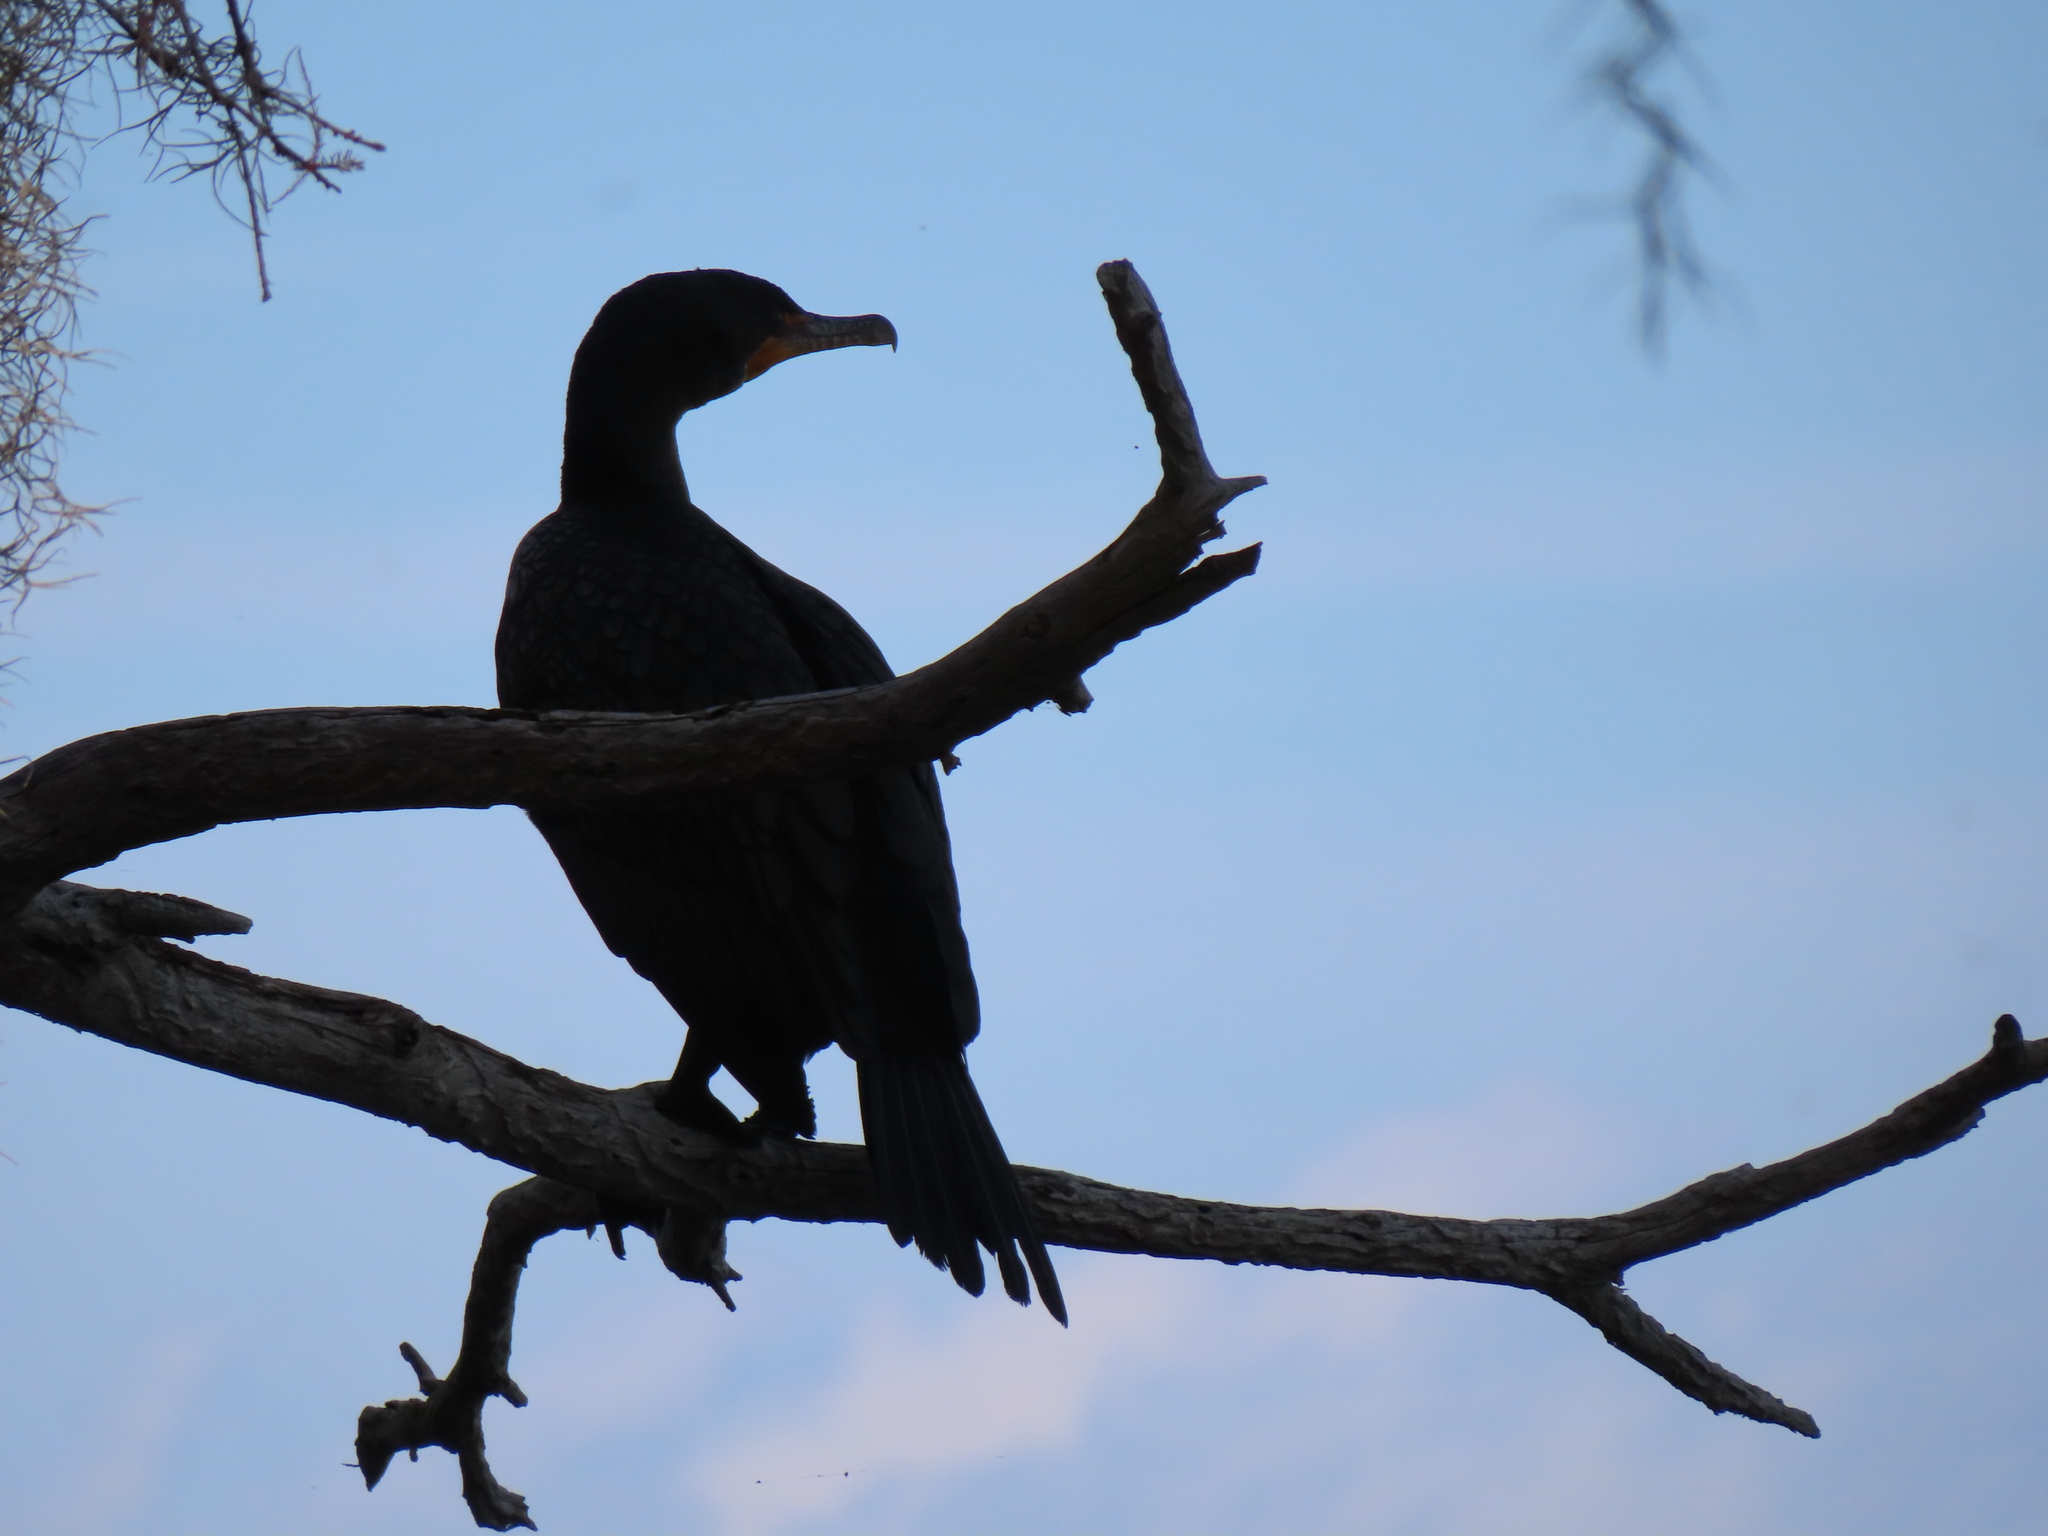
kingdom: Animalia
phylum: Chordata
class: Aves
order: Suliformes
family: Phalacrocoracidae
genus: Phalacrocorax
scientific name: Phalacrocorax auritus
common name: Double-crested cormorant
